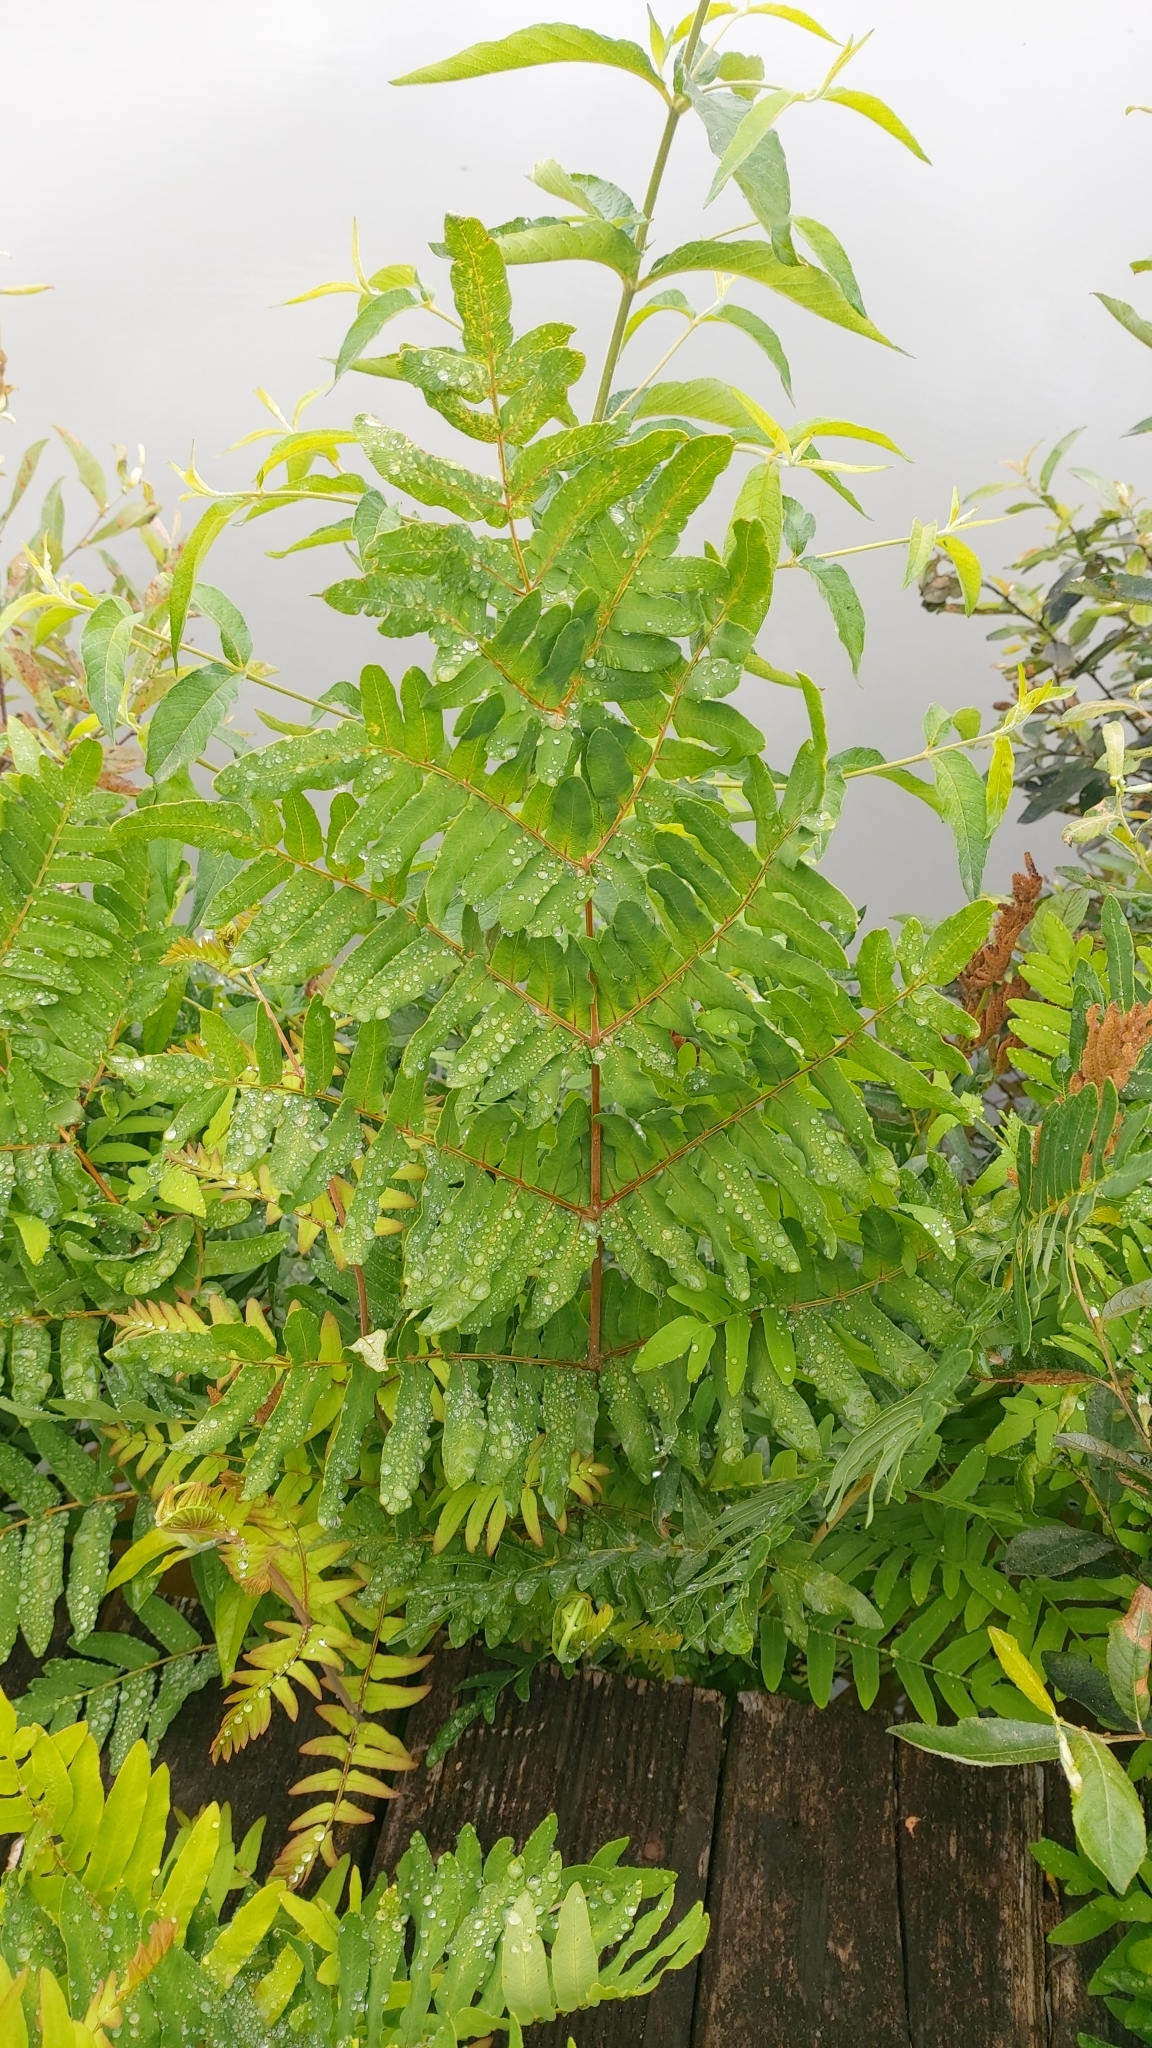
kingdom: Plantae
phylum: Tracheophyta
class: Polypodiopsida
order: Osmundales
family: Osmundaceae
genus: Osmunda
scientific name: Osmunda regalis
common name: Royal fern
